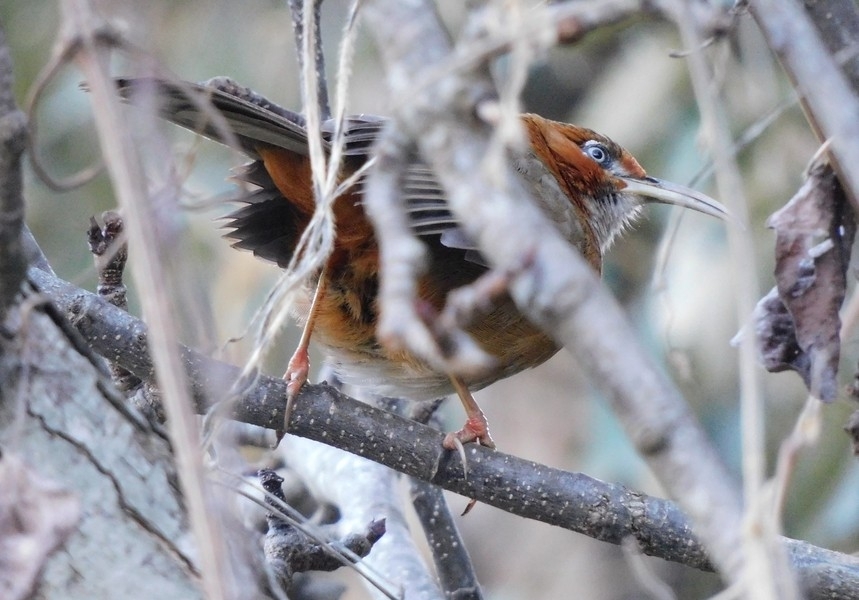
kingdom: Animalia
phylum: Chordata
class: Aves
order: Passeriformes
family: Timaliidae
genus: Pomatorhinus
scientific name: Pomatorhinus erythrogenys
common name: Rusty-cheeked scimitar babbler
